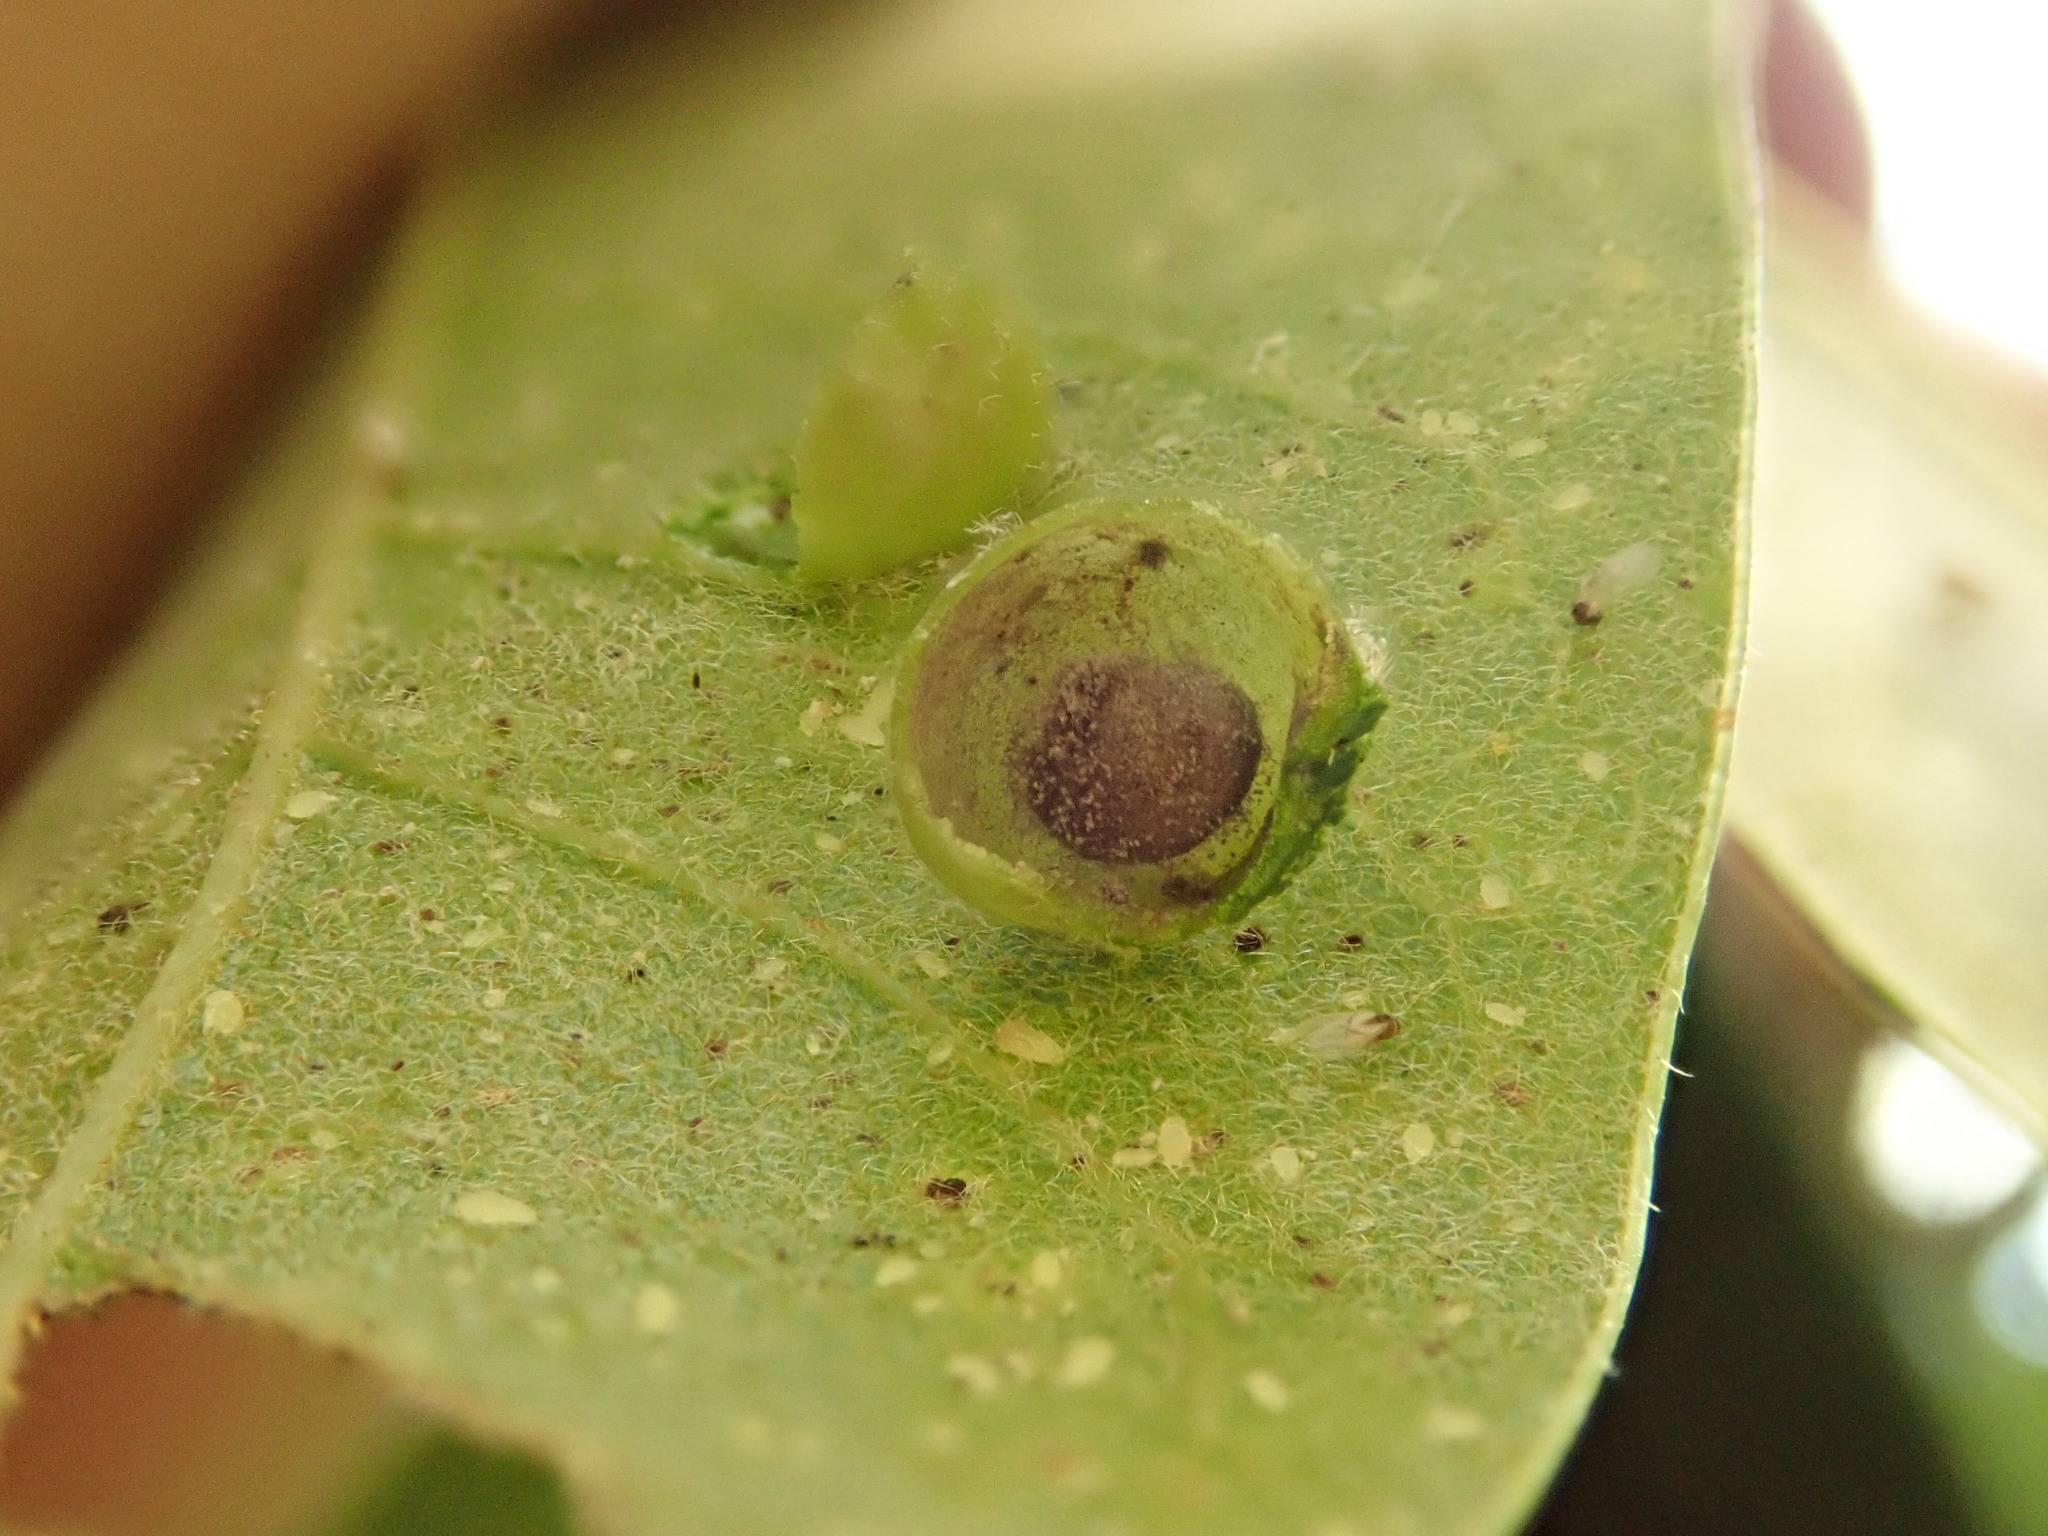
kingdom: Animalia
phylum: Arthropoda
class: Insecta
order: Hymenoptera
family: Cynipidae
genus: Dryocosmus
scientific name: Dryocosmus
